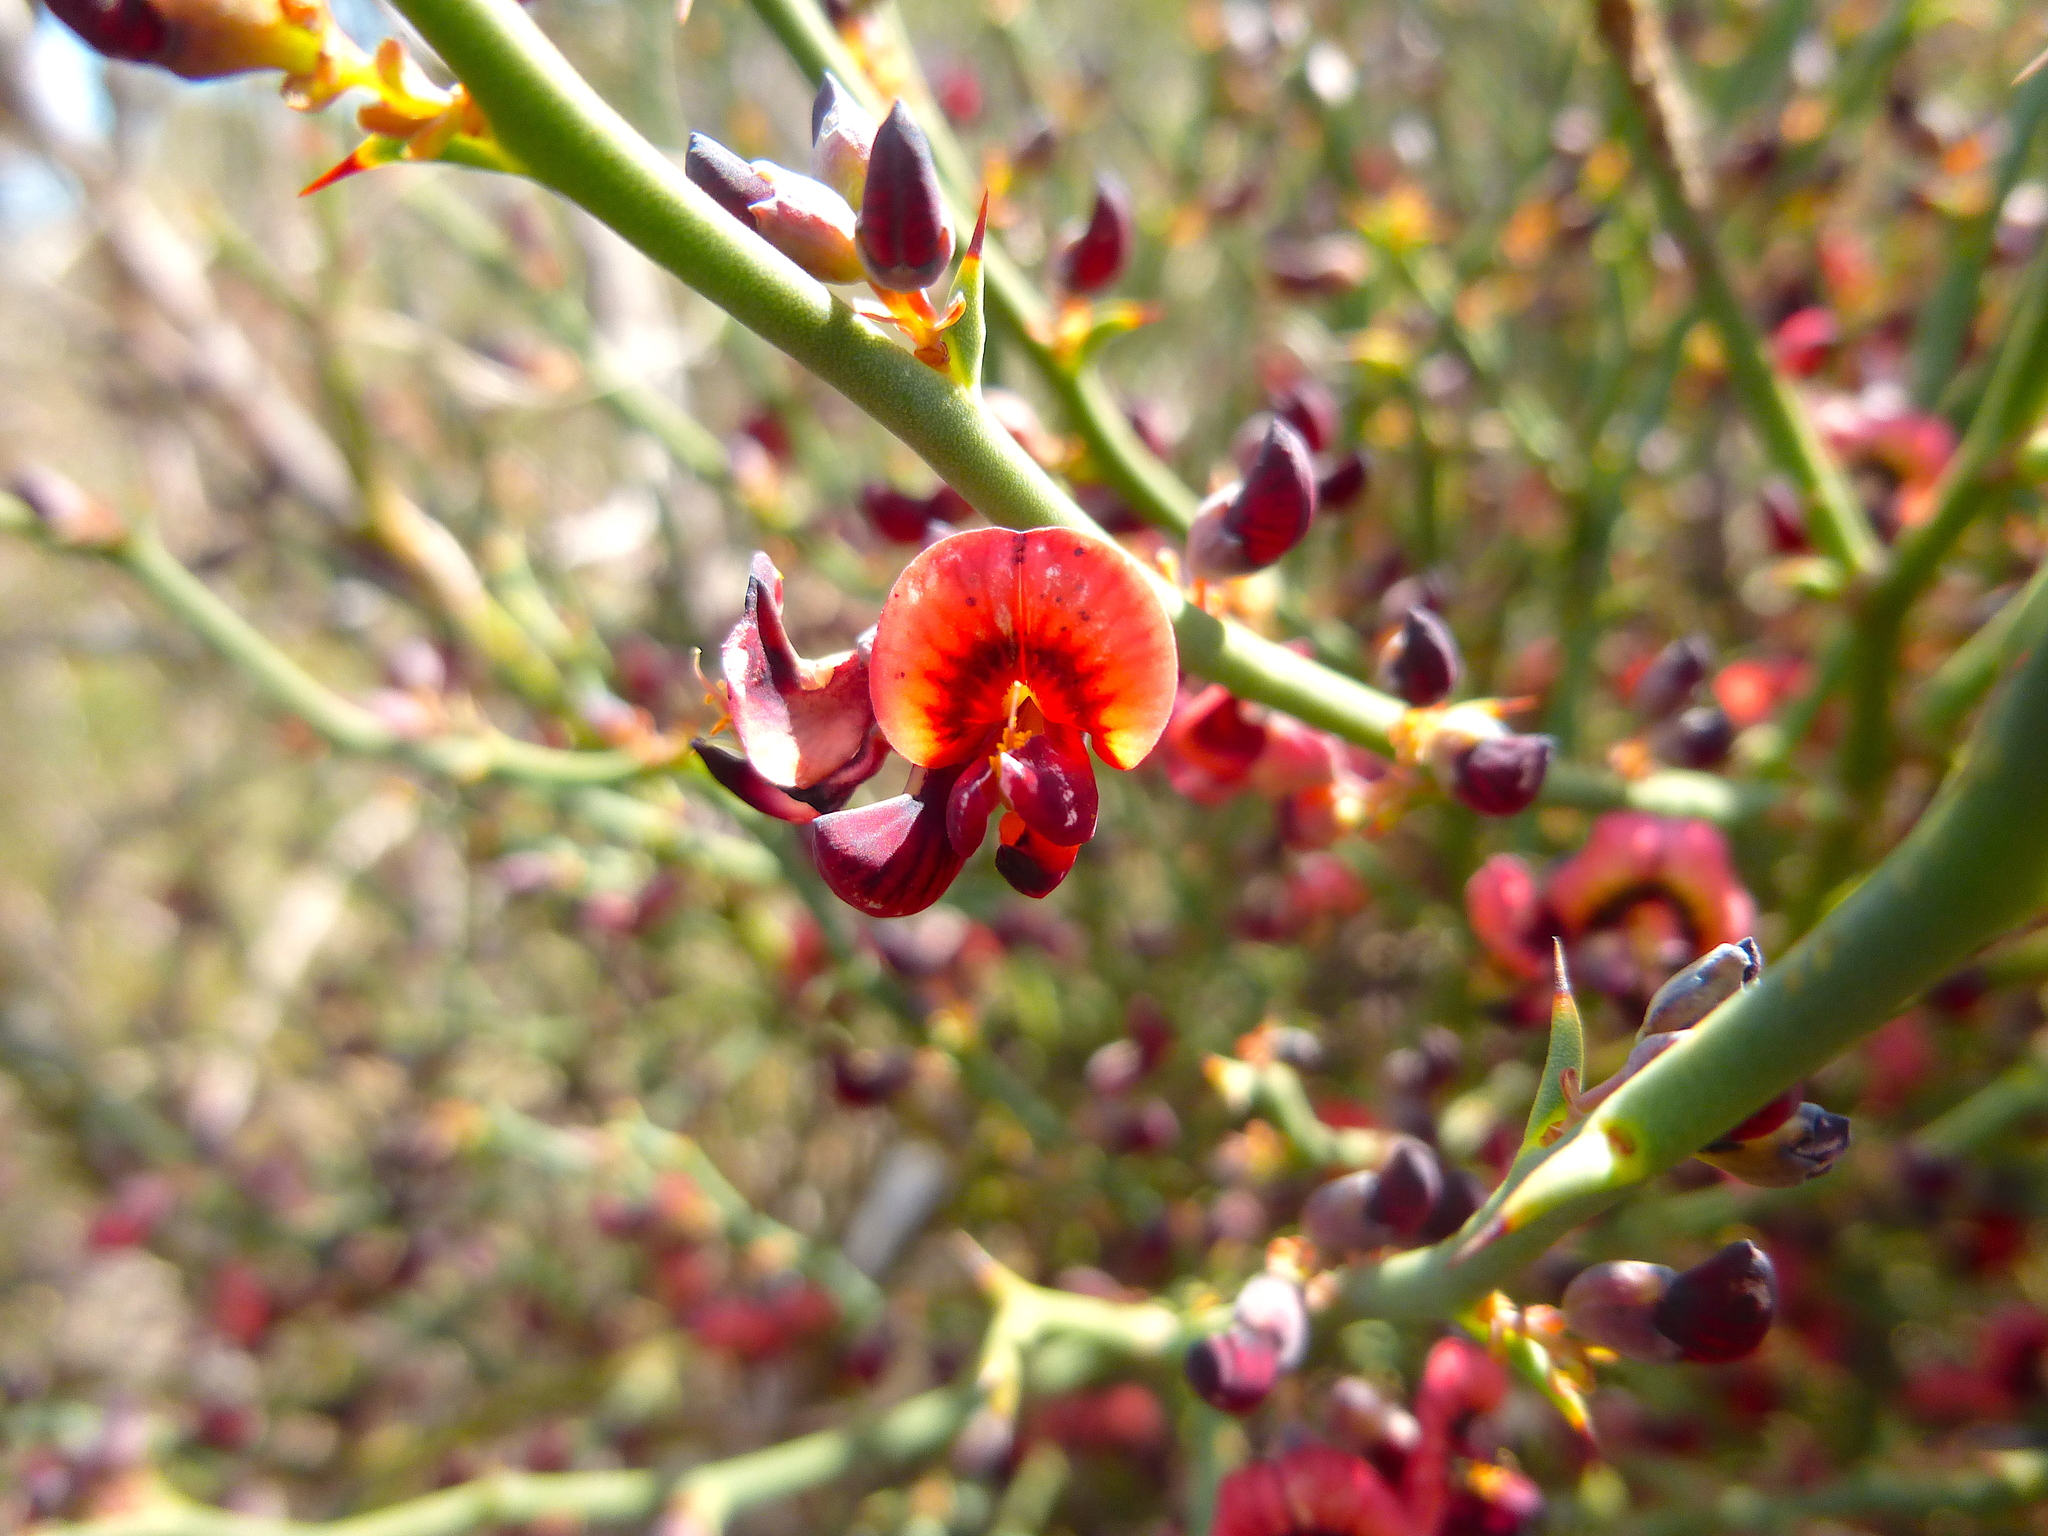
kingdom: Plantae
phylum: Tracheophyta
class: Magnoliopsida
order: Fabales
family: Fabaceae
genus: Daviesia
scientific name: Daviesia brevifolia
